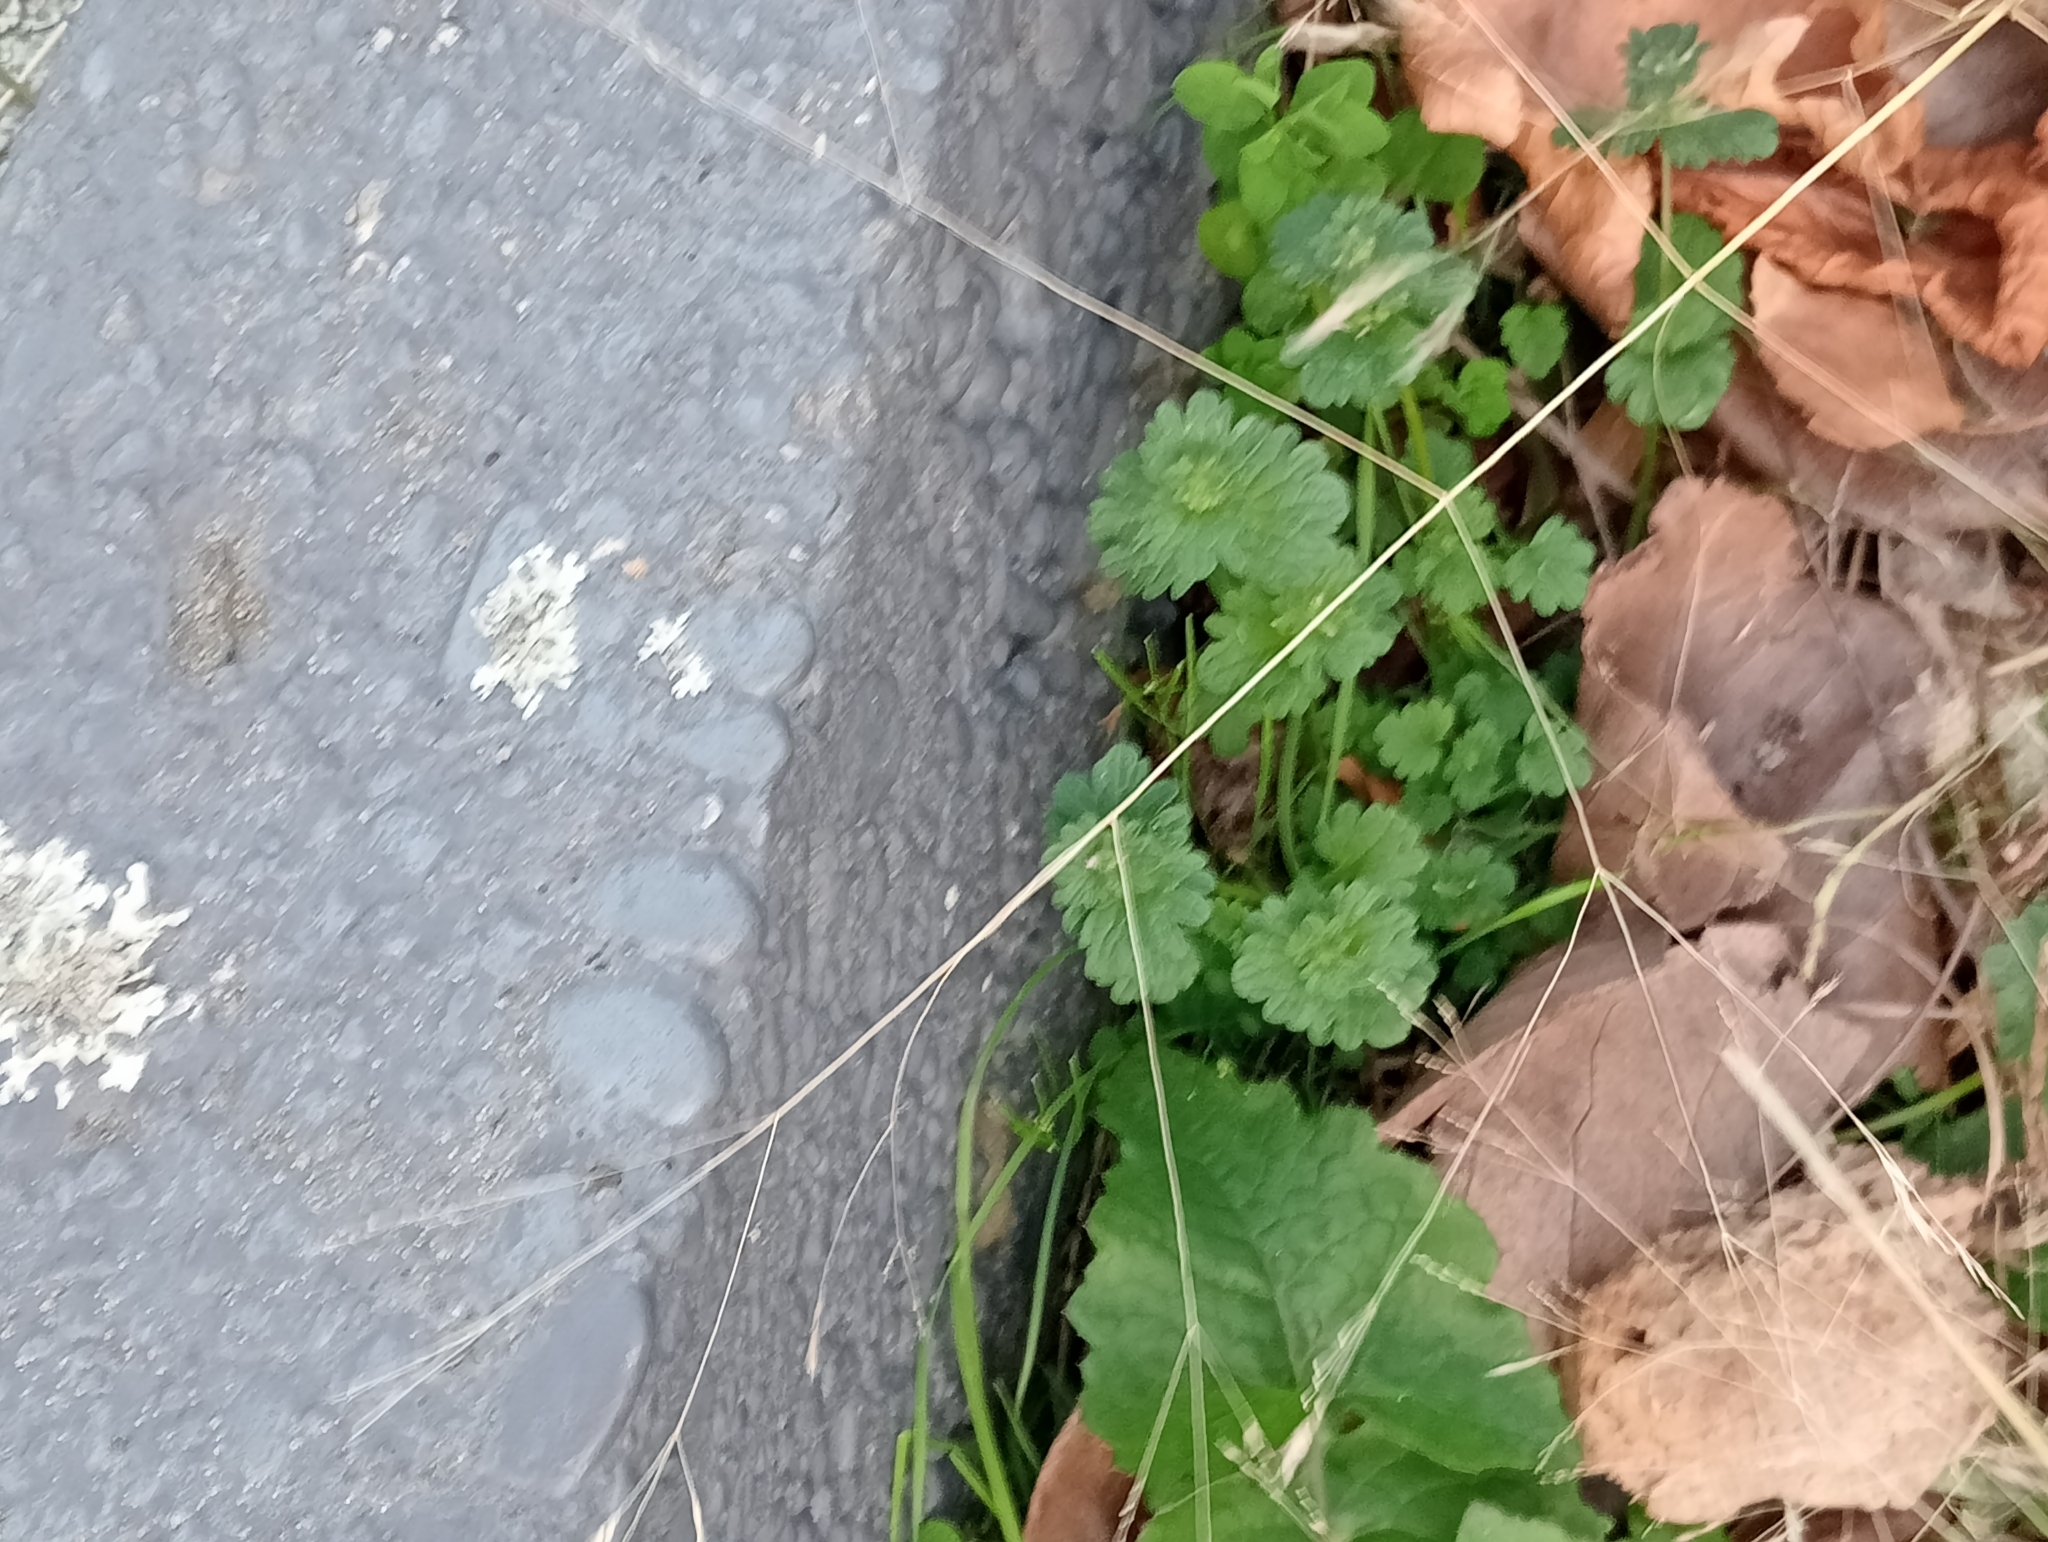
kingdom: Plantae
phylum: Tracheophyta
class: Magnoliopsida
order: Lamiales
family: Lamiaceae
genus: Lamium
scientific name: Lamium amplexicaule
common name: Henbit dead-nettle
